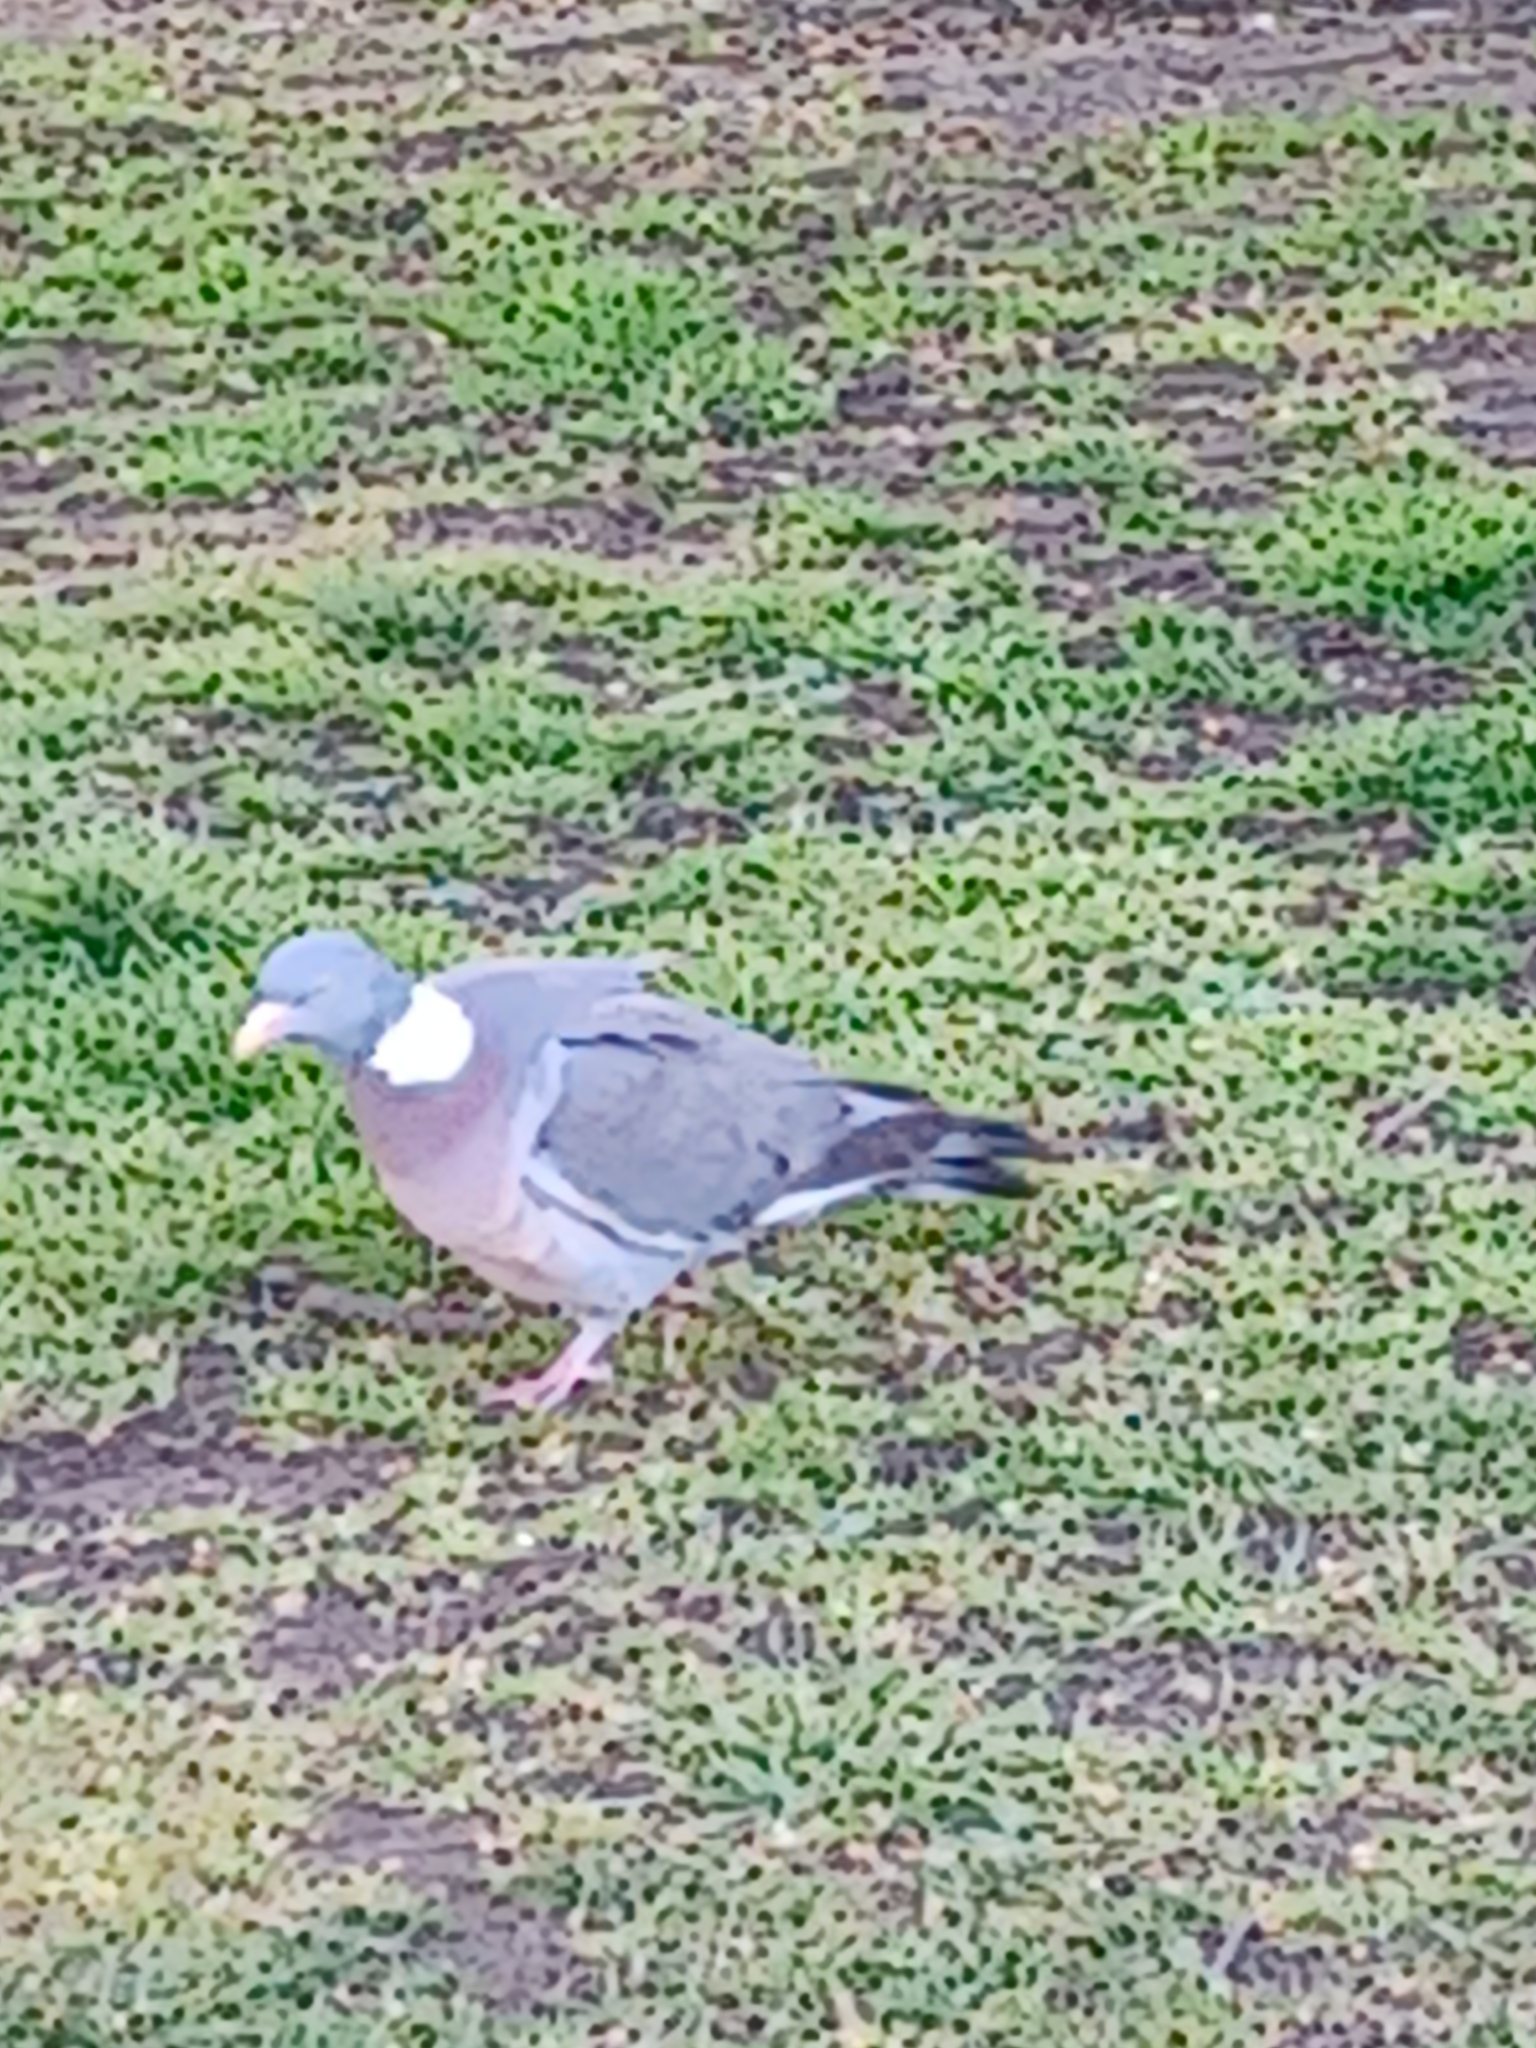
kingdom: Animalia
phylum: Chordata
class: Aves
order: Columbiformes
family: Columbidae
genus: Columba
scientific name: Columba palumbus
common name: Common wood pigeon
